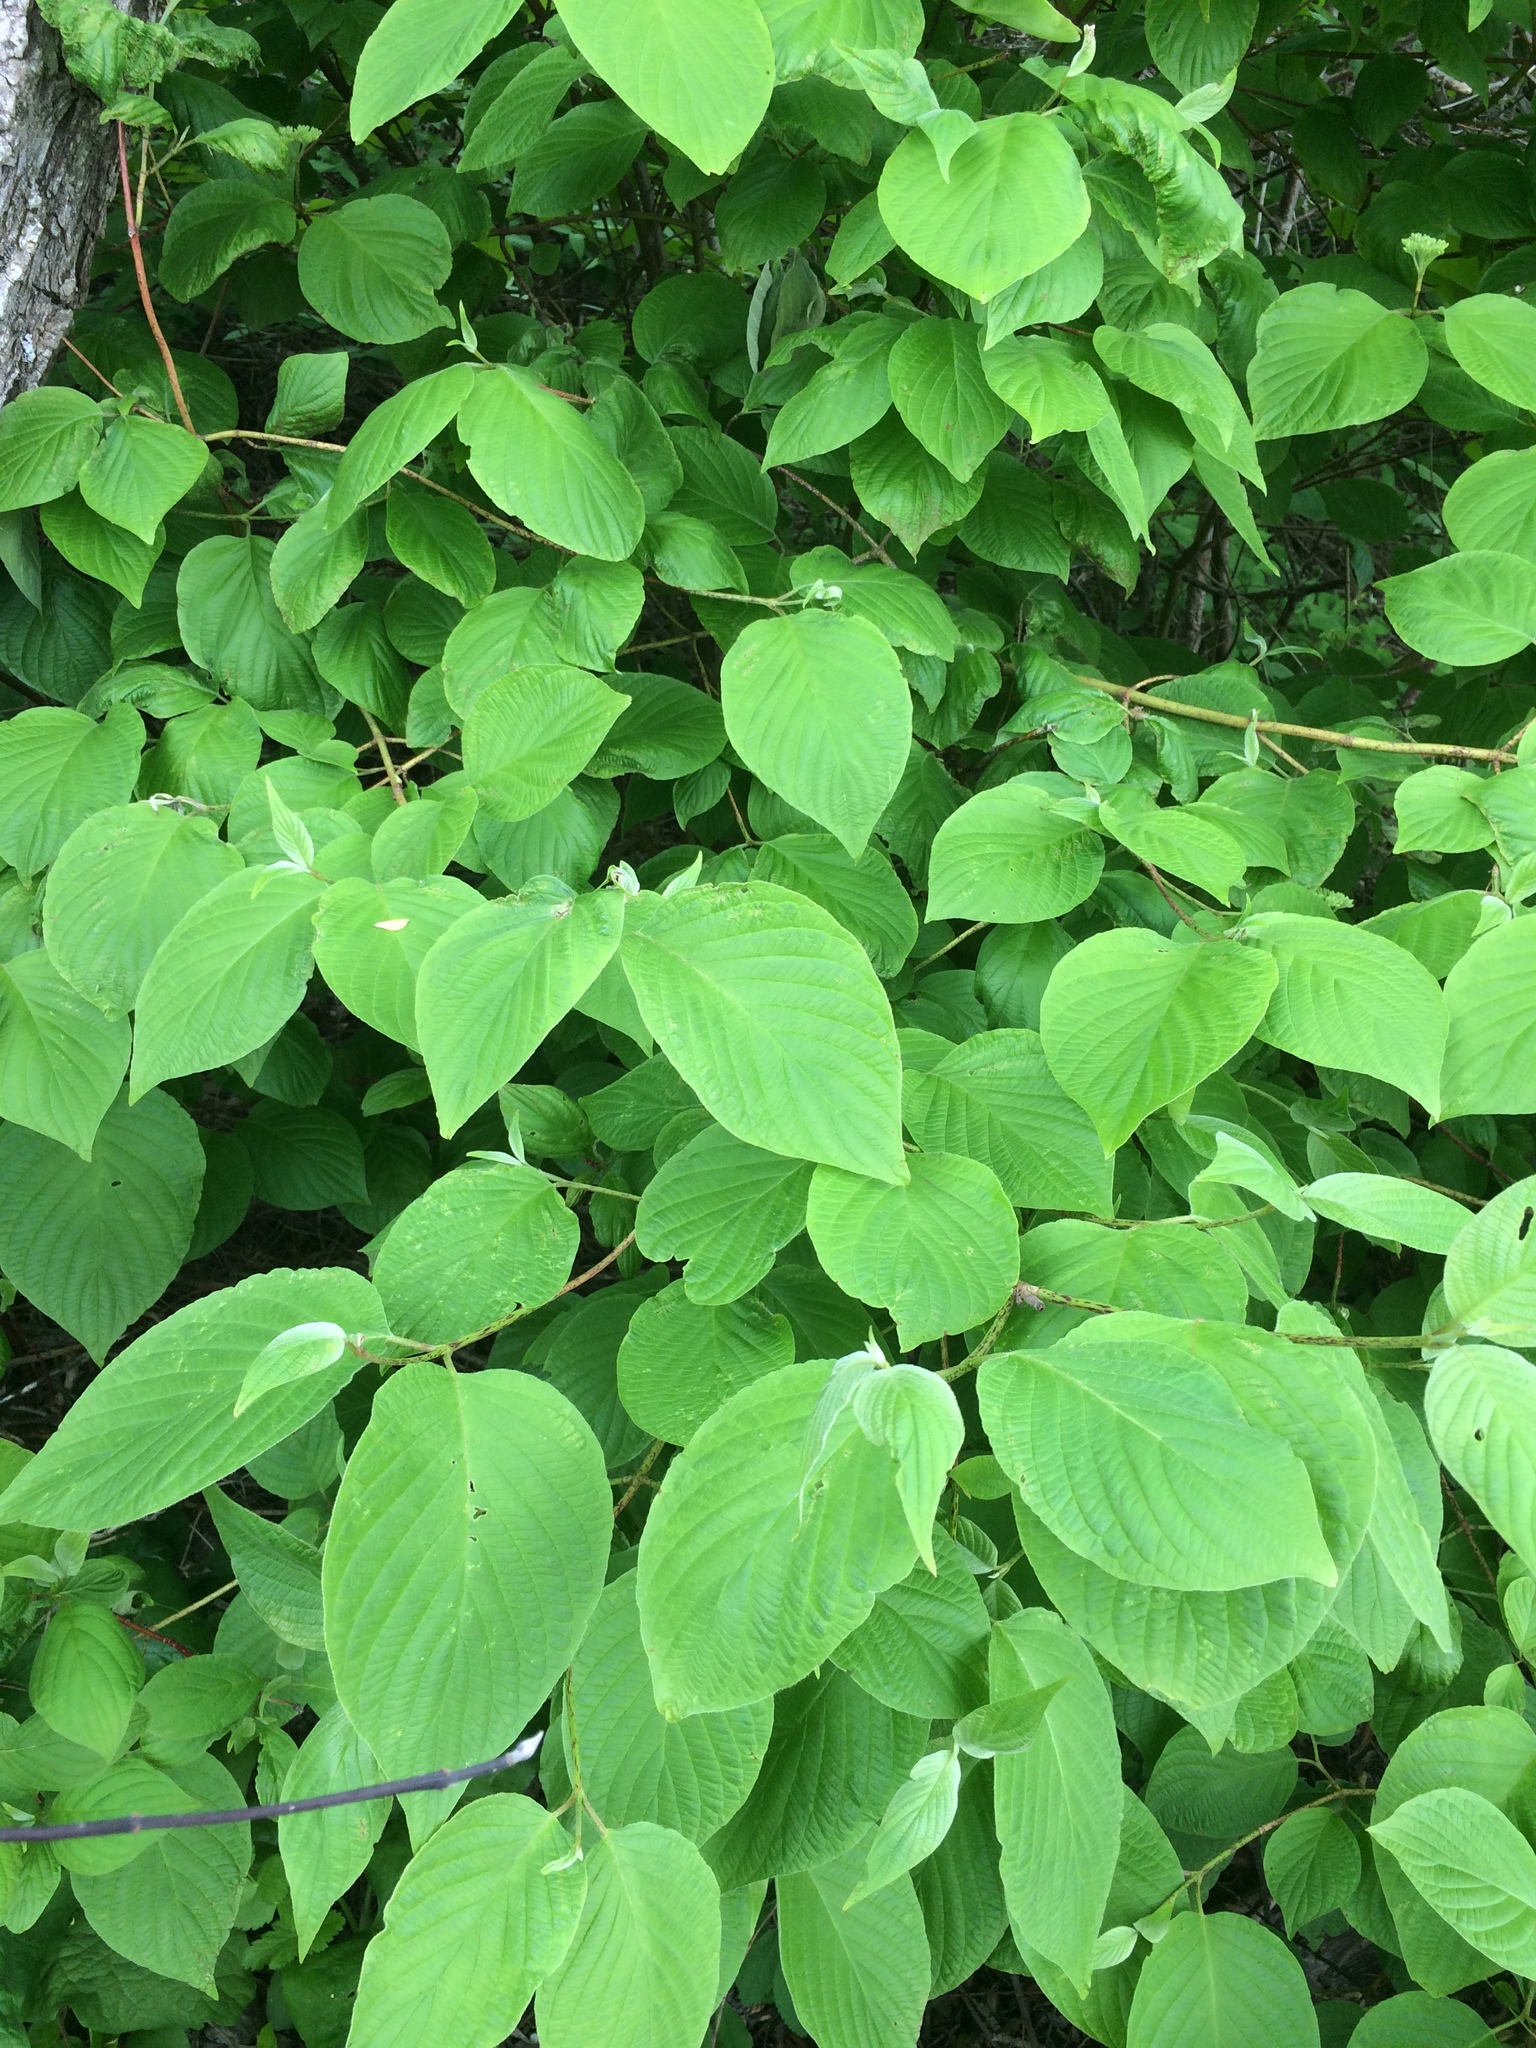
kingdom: Plantae
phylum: Tracheophyta
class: Magnoliopsida
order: Cornales
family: Cornaceae
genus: Cornus
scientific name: Cornus rugosa
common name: Round-leaf dogwood
